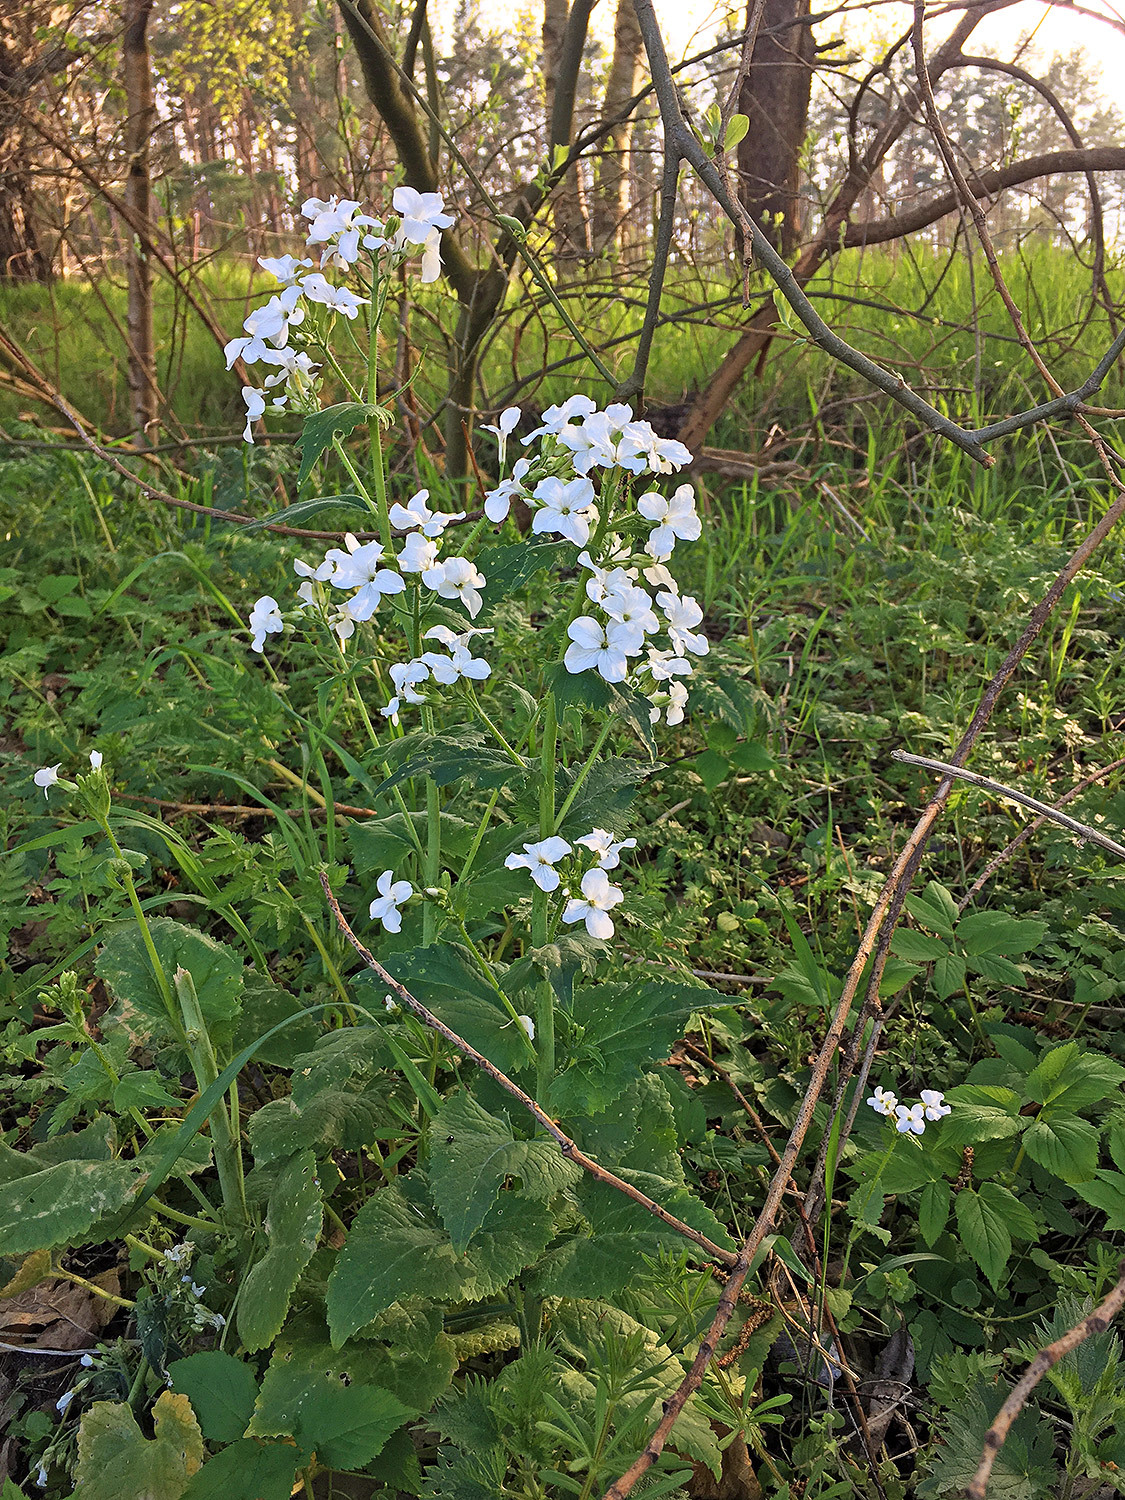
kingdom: Plantae
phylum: Tracheophyta
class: Magnoliopsida
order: Brassicales
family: Brassicaceae
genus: Lunaria
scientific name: Lunaria annua
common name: Honesty
